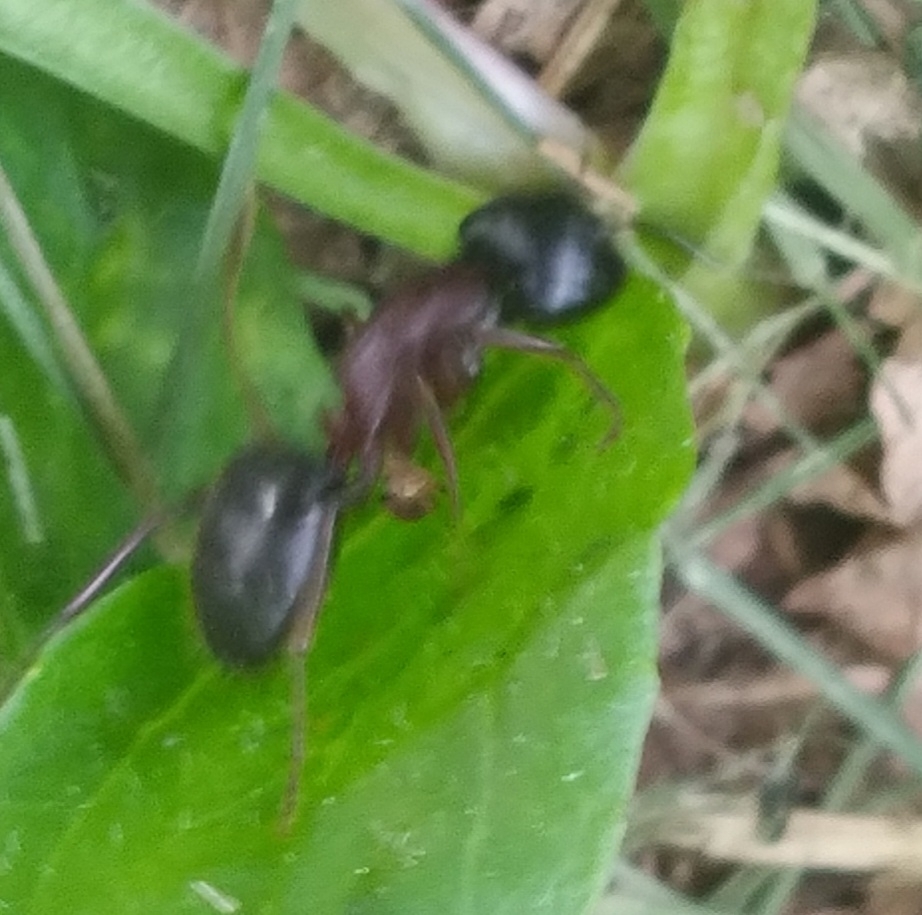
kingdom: Animalia
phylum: Arthropoda
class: Insecta
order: Hymenoptera
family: Formicidae
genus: Camponotus
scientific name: Camponotus novaeboracensis
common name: New york carpenter ant
